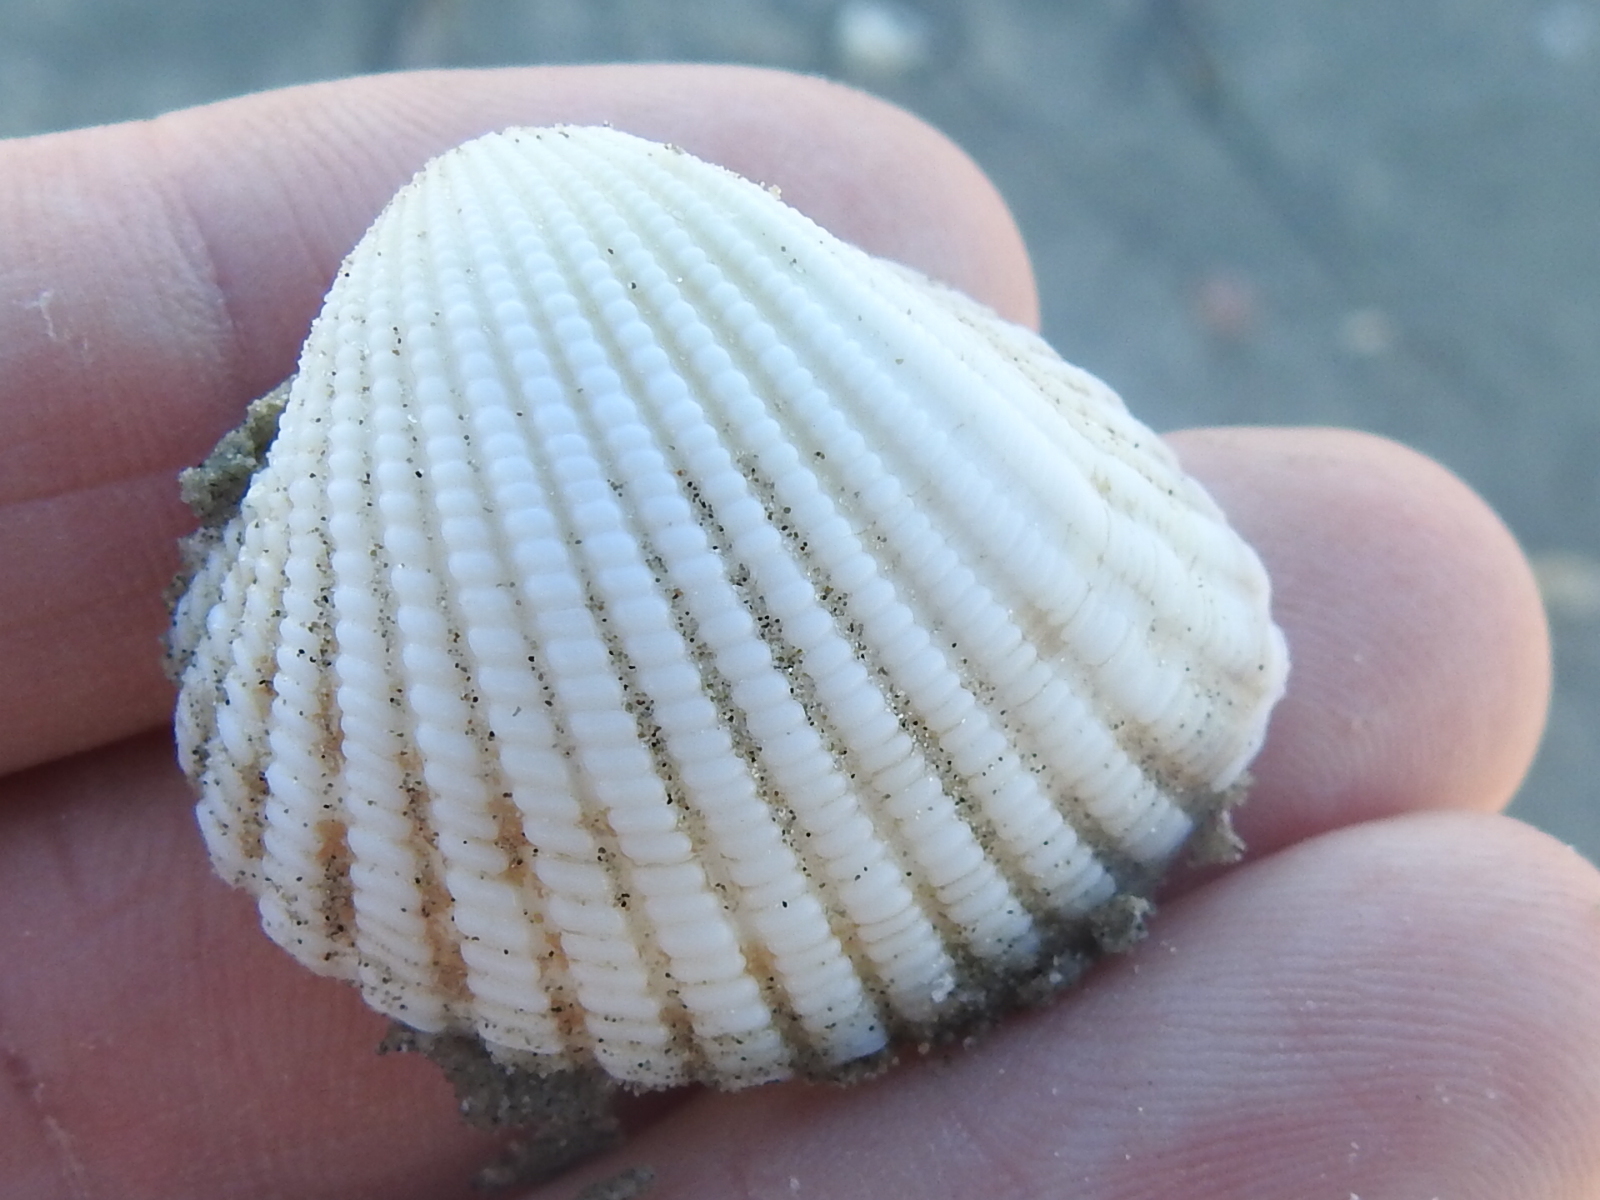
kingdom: Animalia
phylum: Mollusca
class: Bivalvia
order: Arcida
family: Arcidae
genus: Anadara
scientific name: Anadara brasiliana
